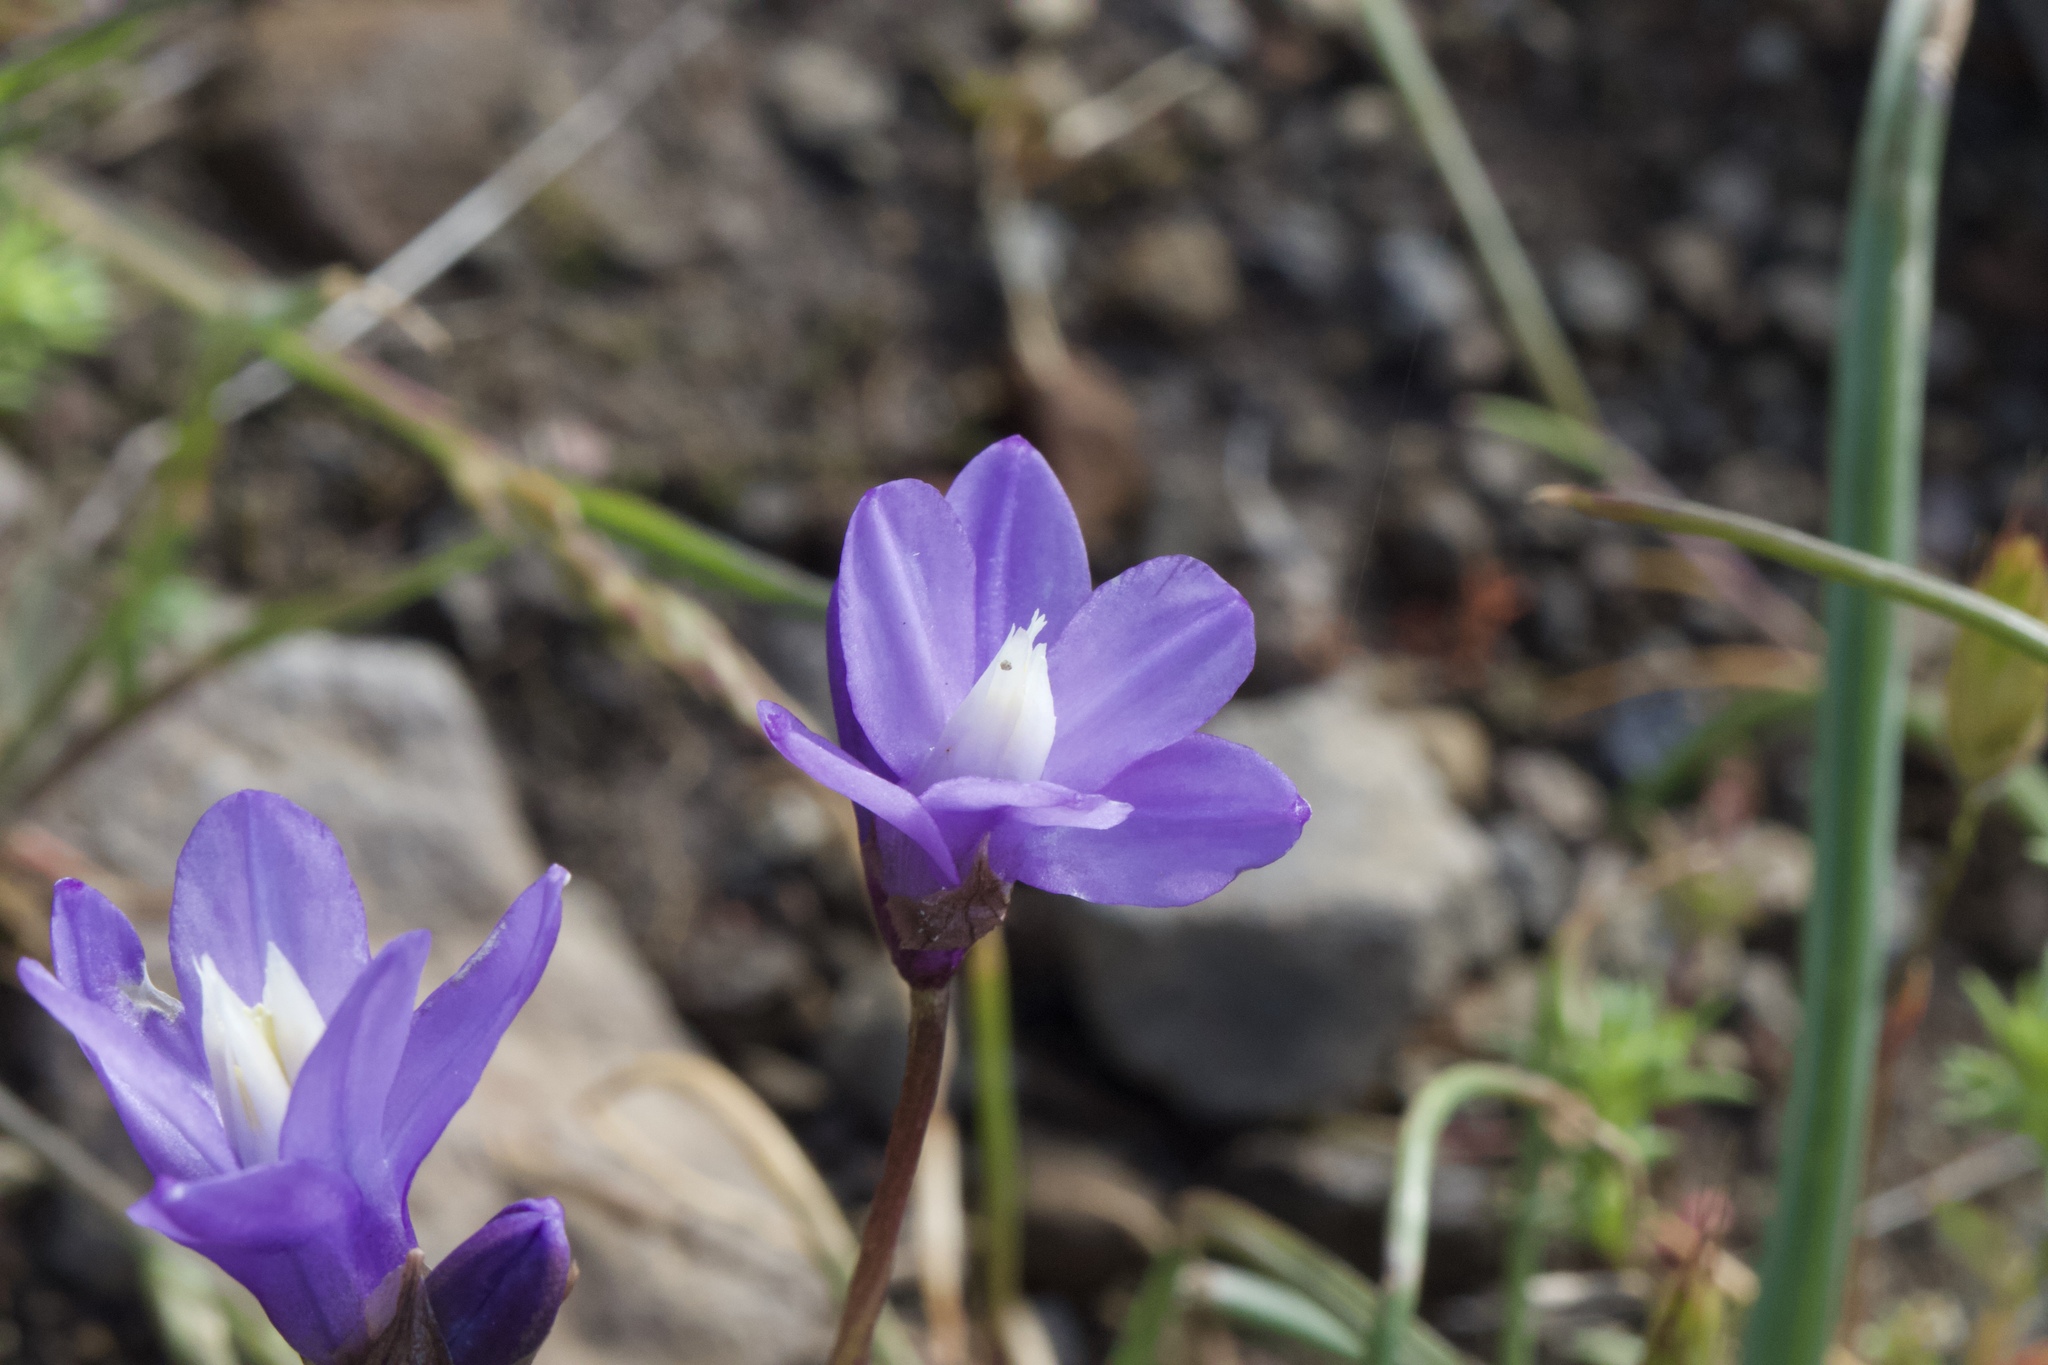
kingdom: Plantae
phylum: Tracheophyta
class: Liliopsida
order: Asparagales
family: Asparagaceae
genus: Dipterostemon
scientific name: Dipterostemon capitatus
